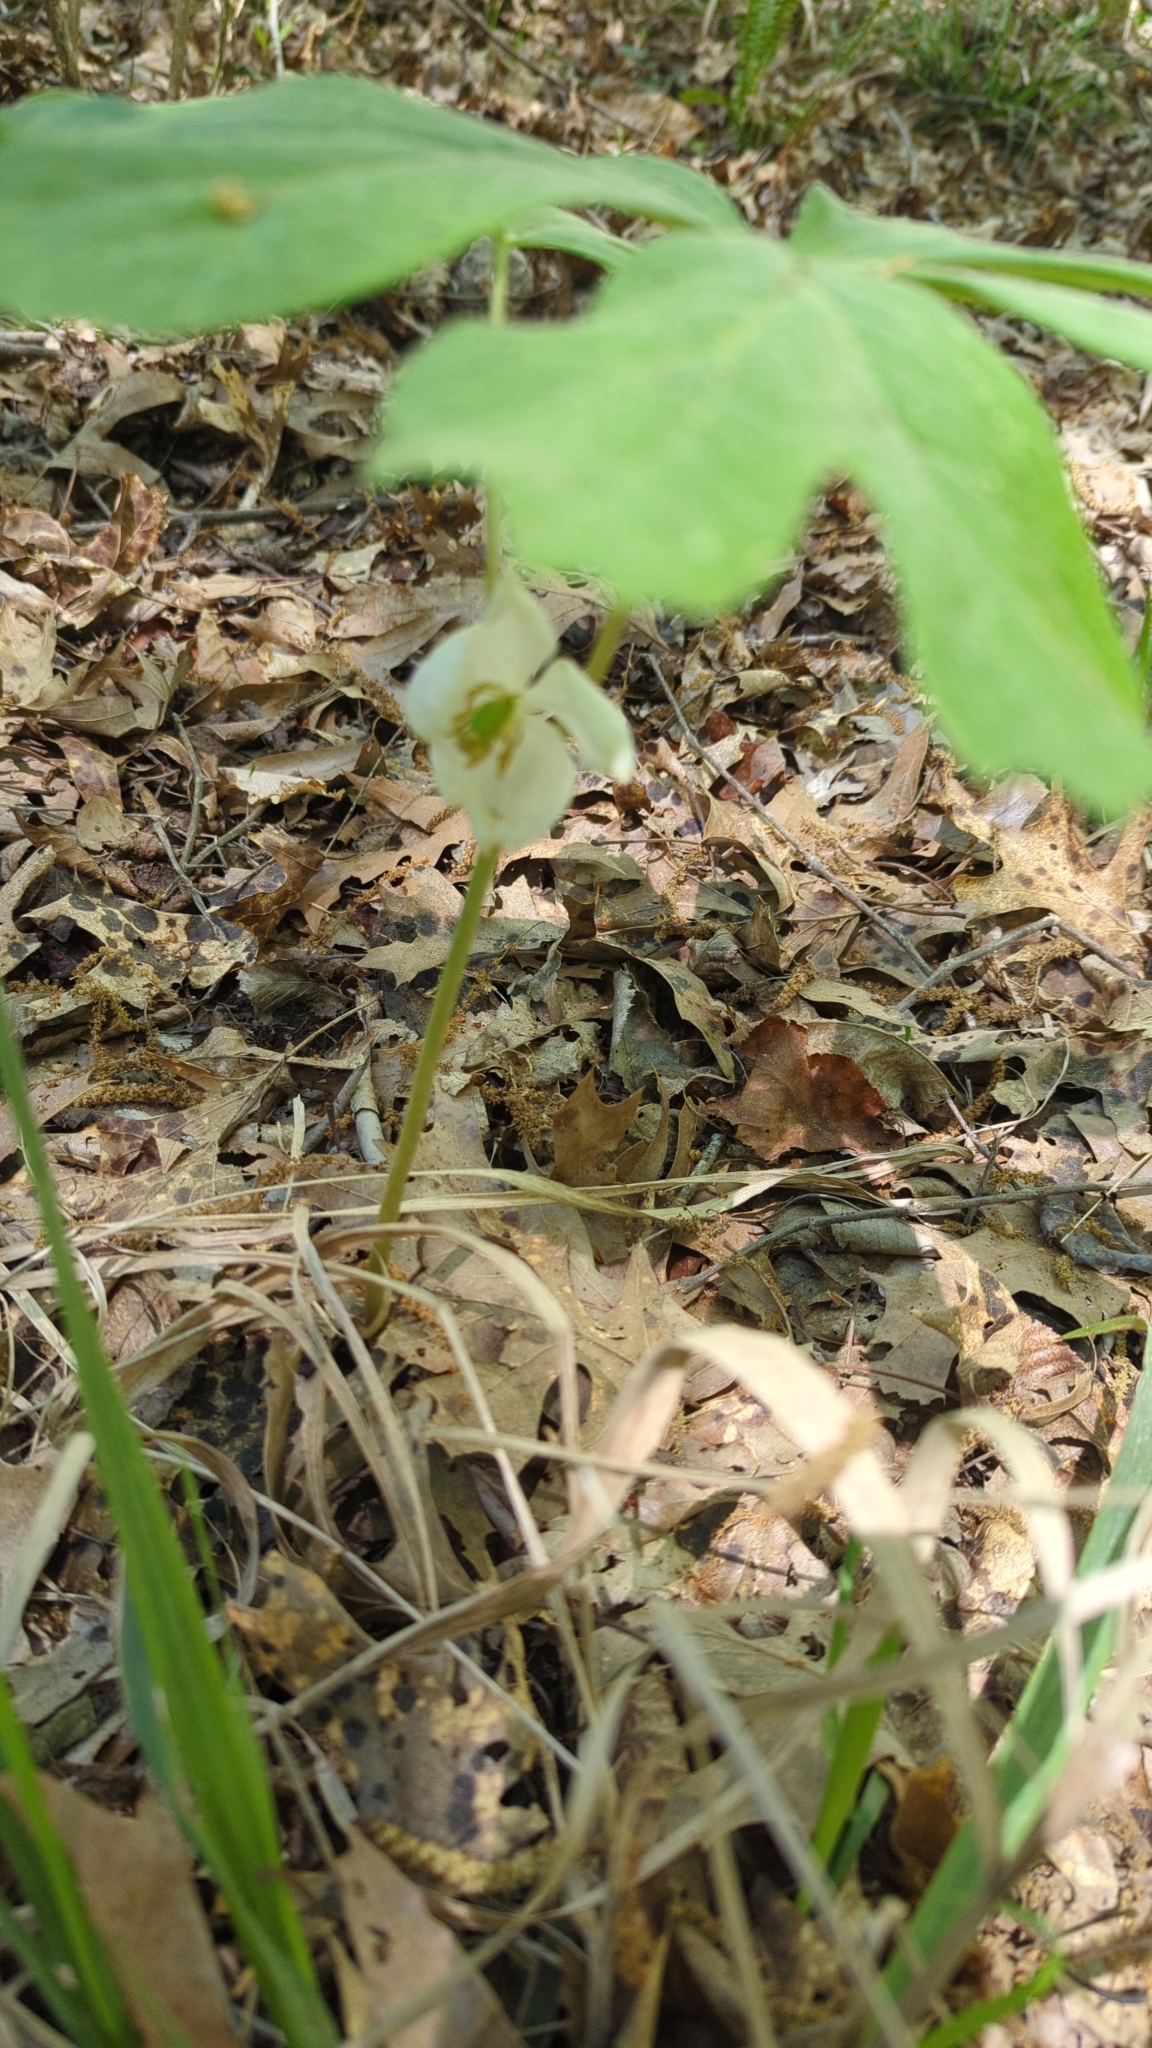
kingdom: Plantae
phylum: Tracheophyta
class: Magnoliopsida
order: Ranunculales
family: Berberidaceae
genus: Podophyllum
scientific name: Podophyllum peltatum
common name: Wild mandrake
